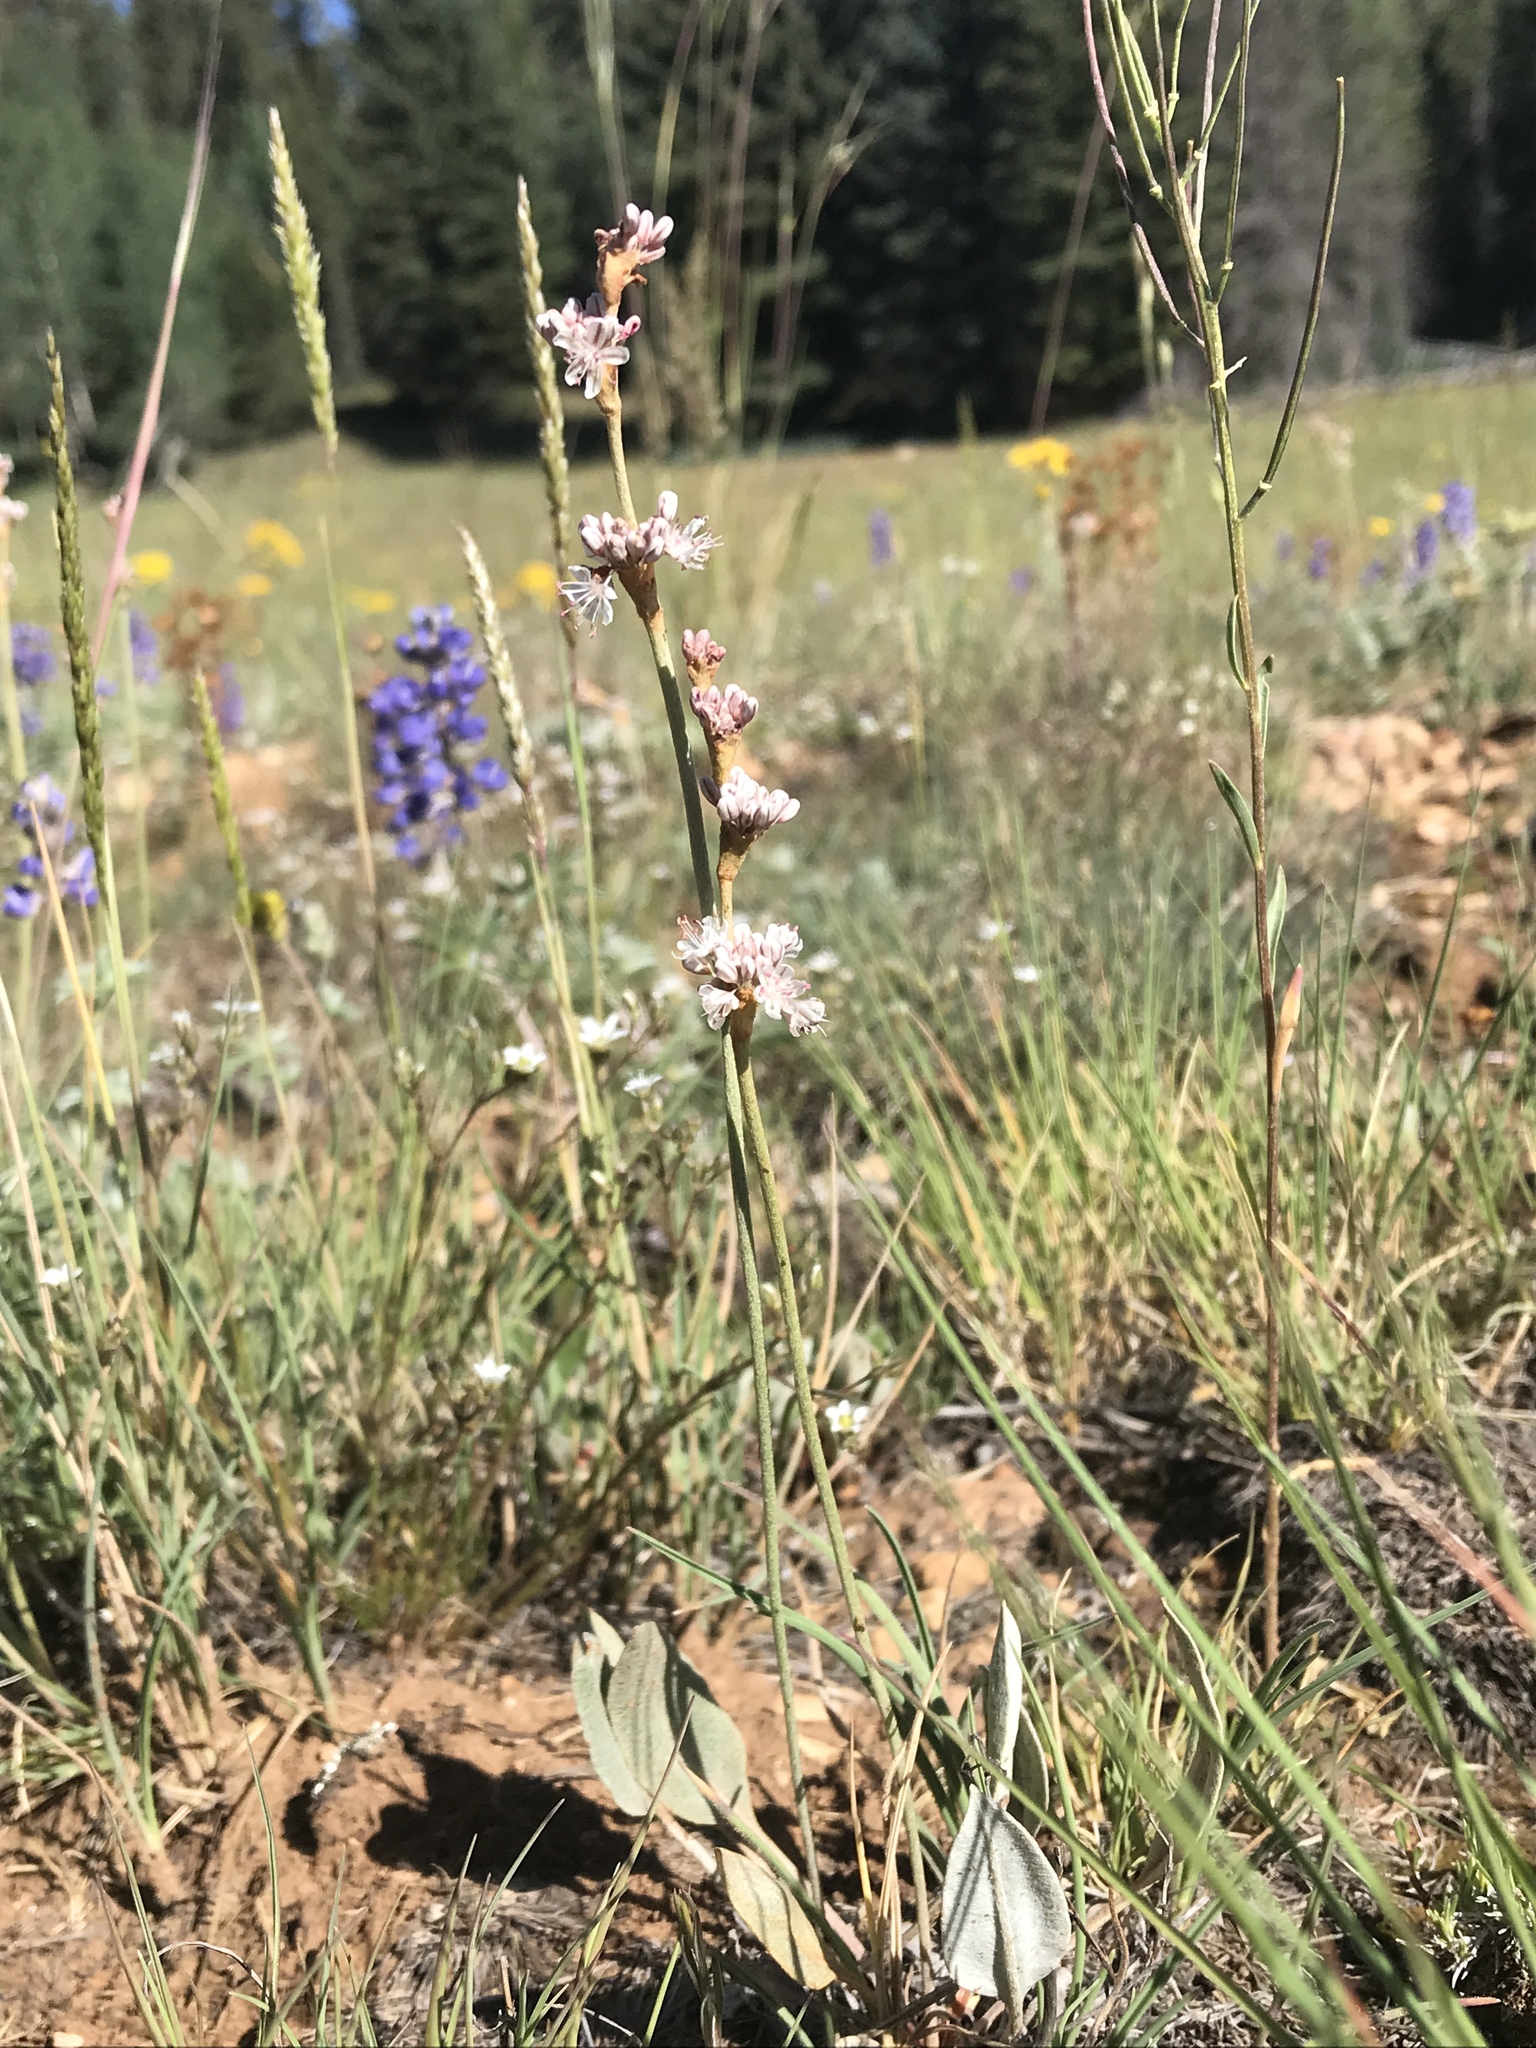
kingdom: Plantae
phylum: Tracheophyta
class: Magnoliopsida
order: Caryophyllales
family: Polygonaceae
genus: Eriogonum
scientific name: Eriogonum racemosum
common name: Redroot wild buckwheat
